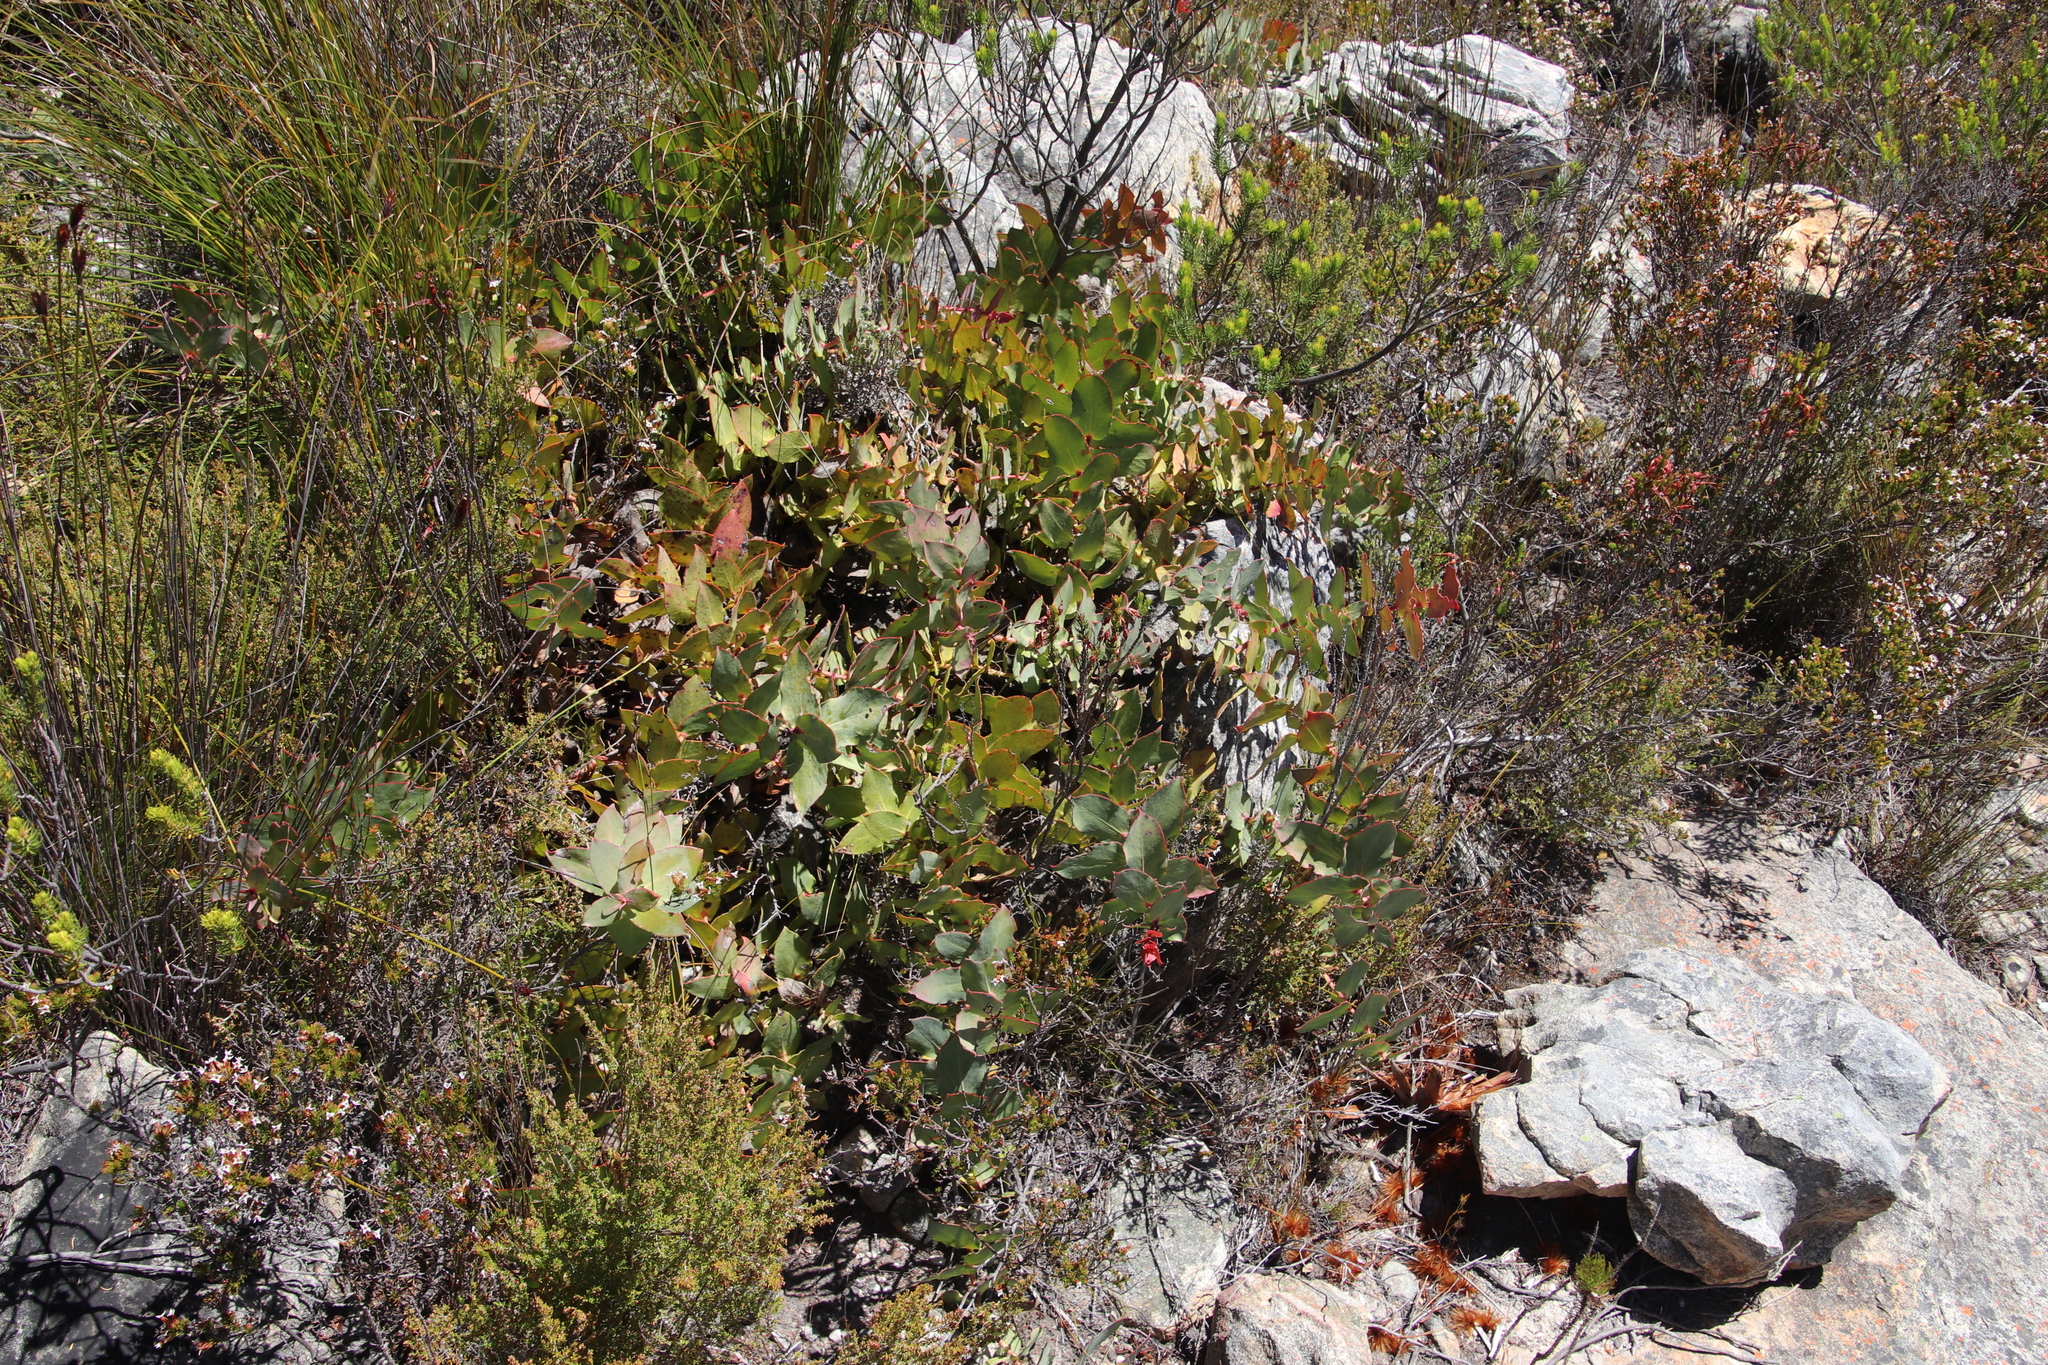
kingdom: Plantae
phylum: Tracheophyta
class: Magnoliopsida
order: Proteales
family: Proteaceae
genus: Protea
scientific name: Protea amplexicaulis
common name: Clasping-leaf sugarbush
